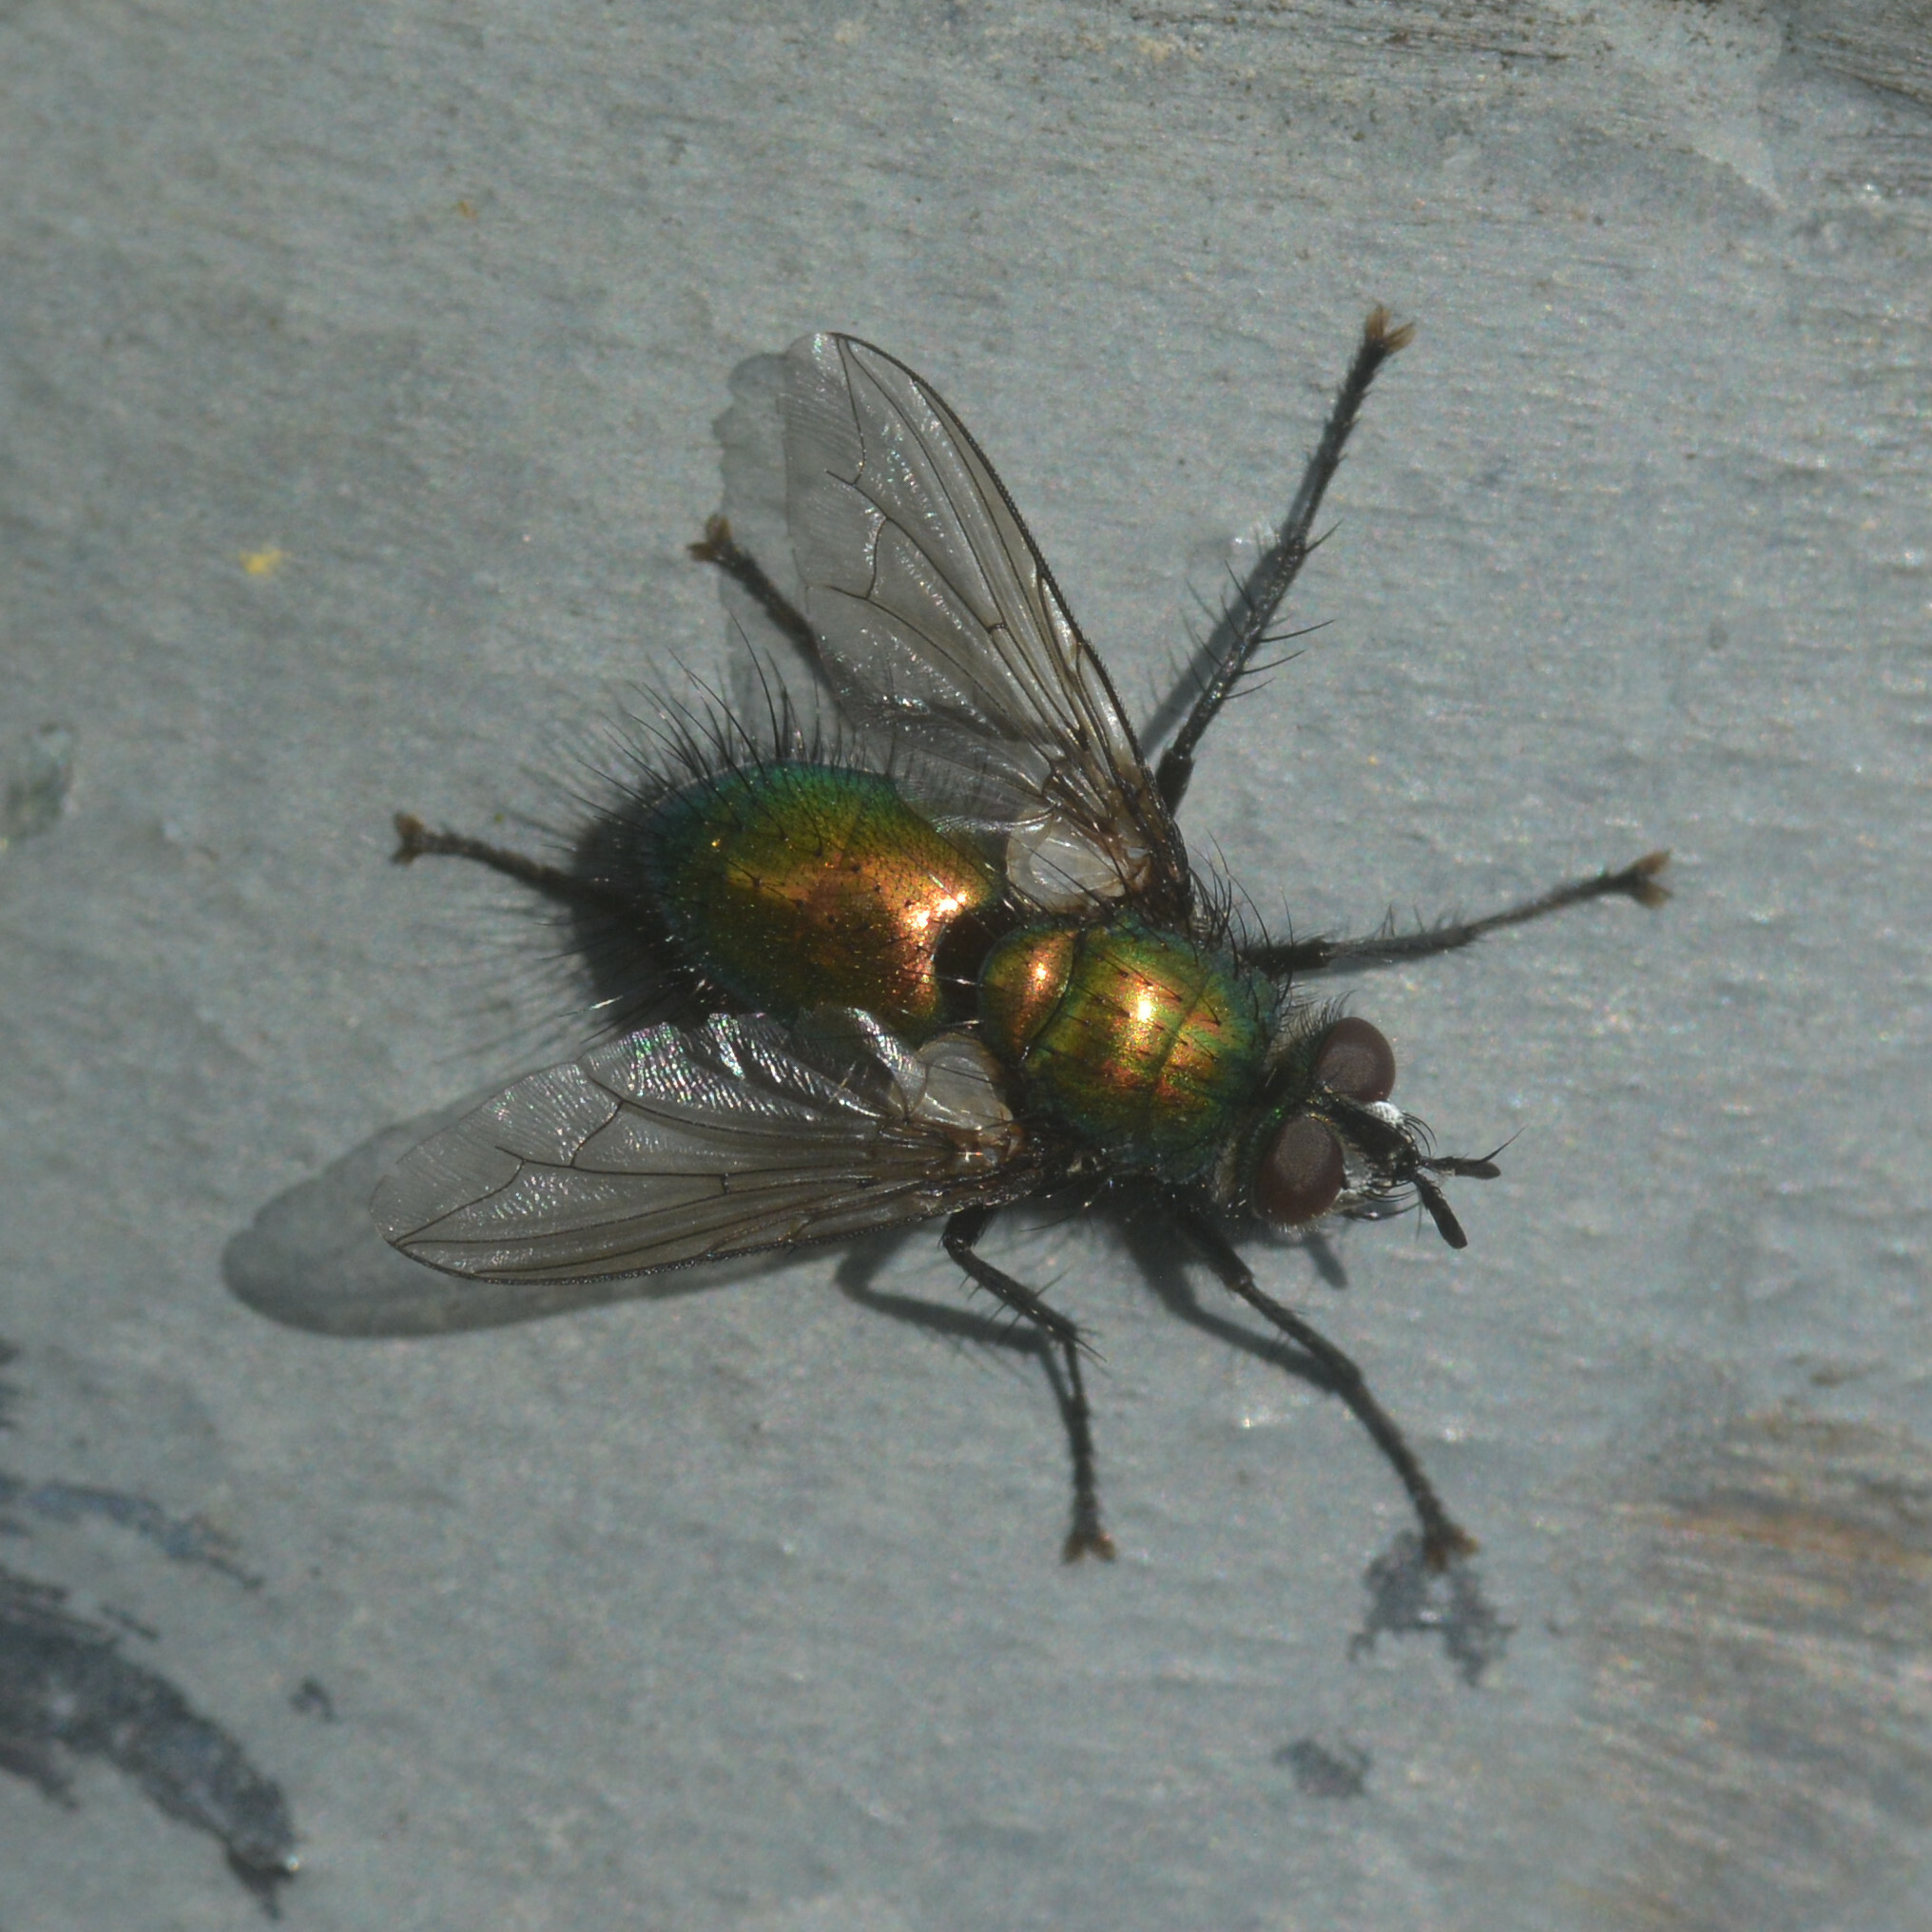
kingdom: Animalia
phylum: Arthropoda
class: Insecta
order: Diptera
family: Tachinidae
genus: Gymnocheta
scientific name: Gymnocheta viridis
